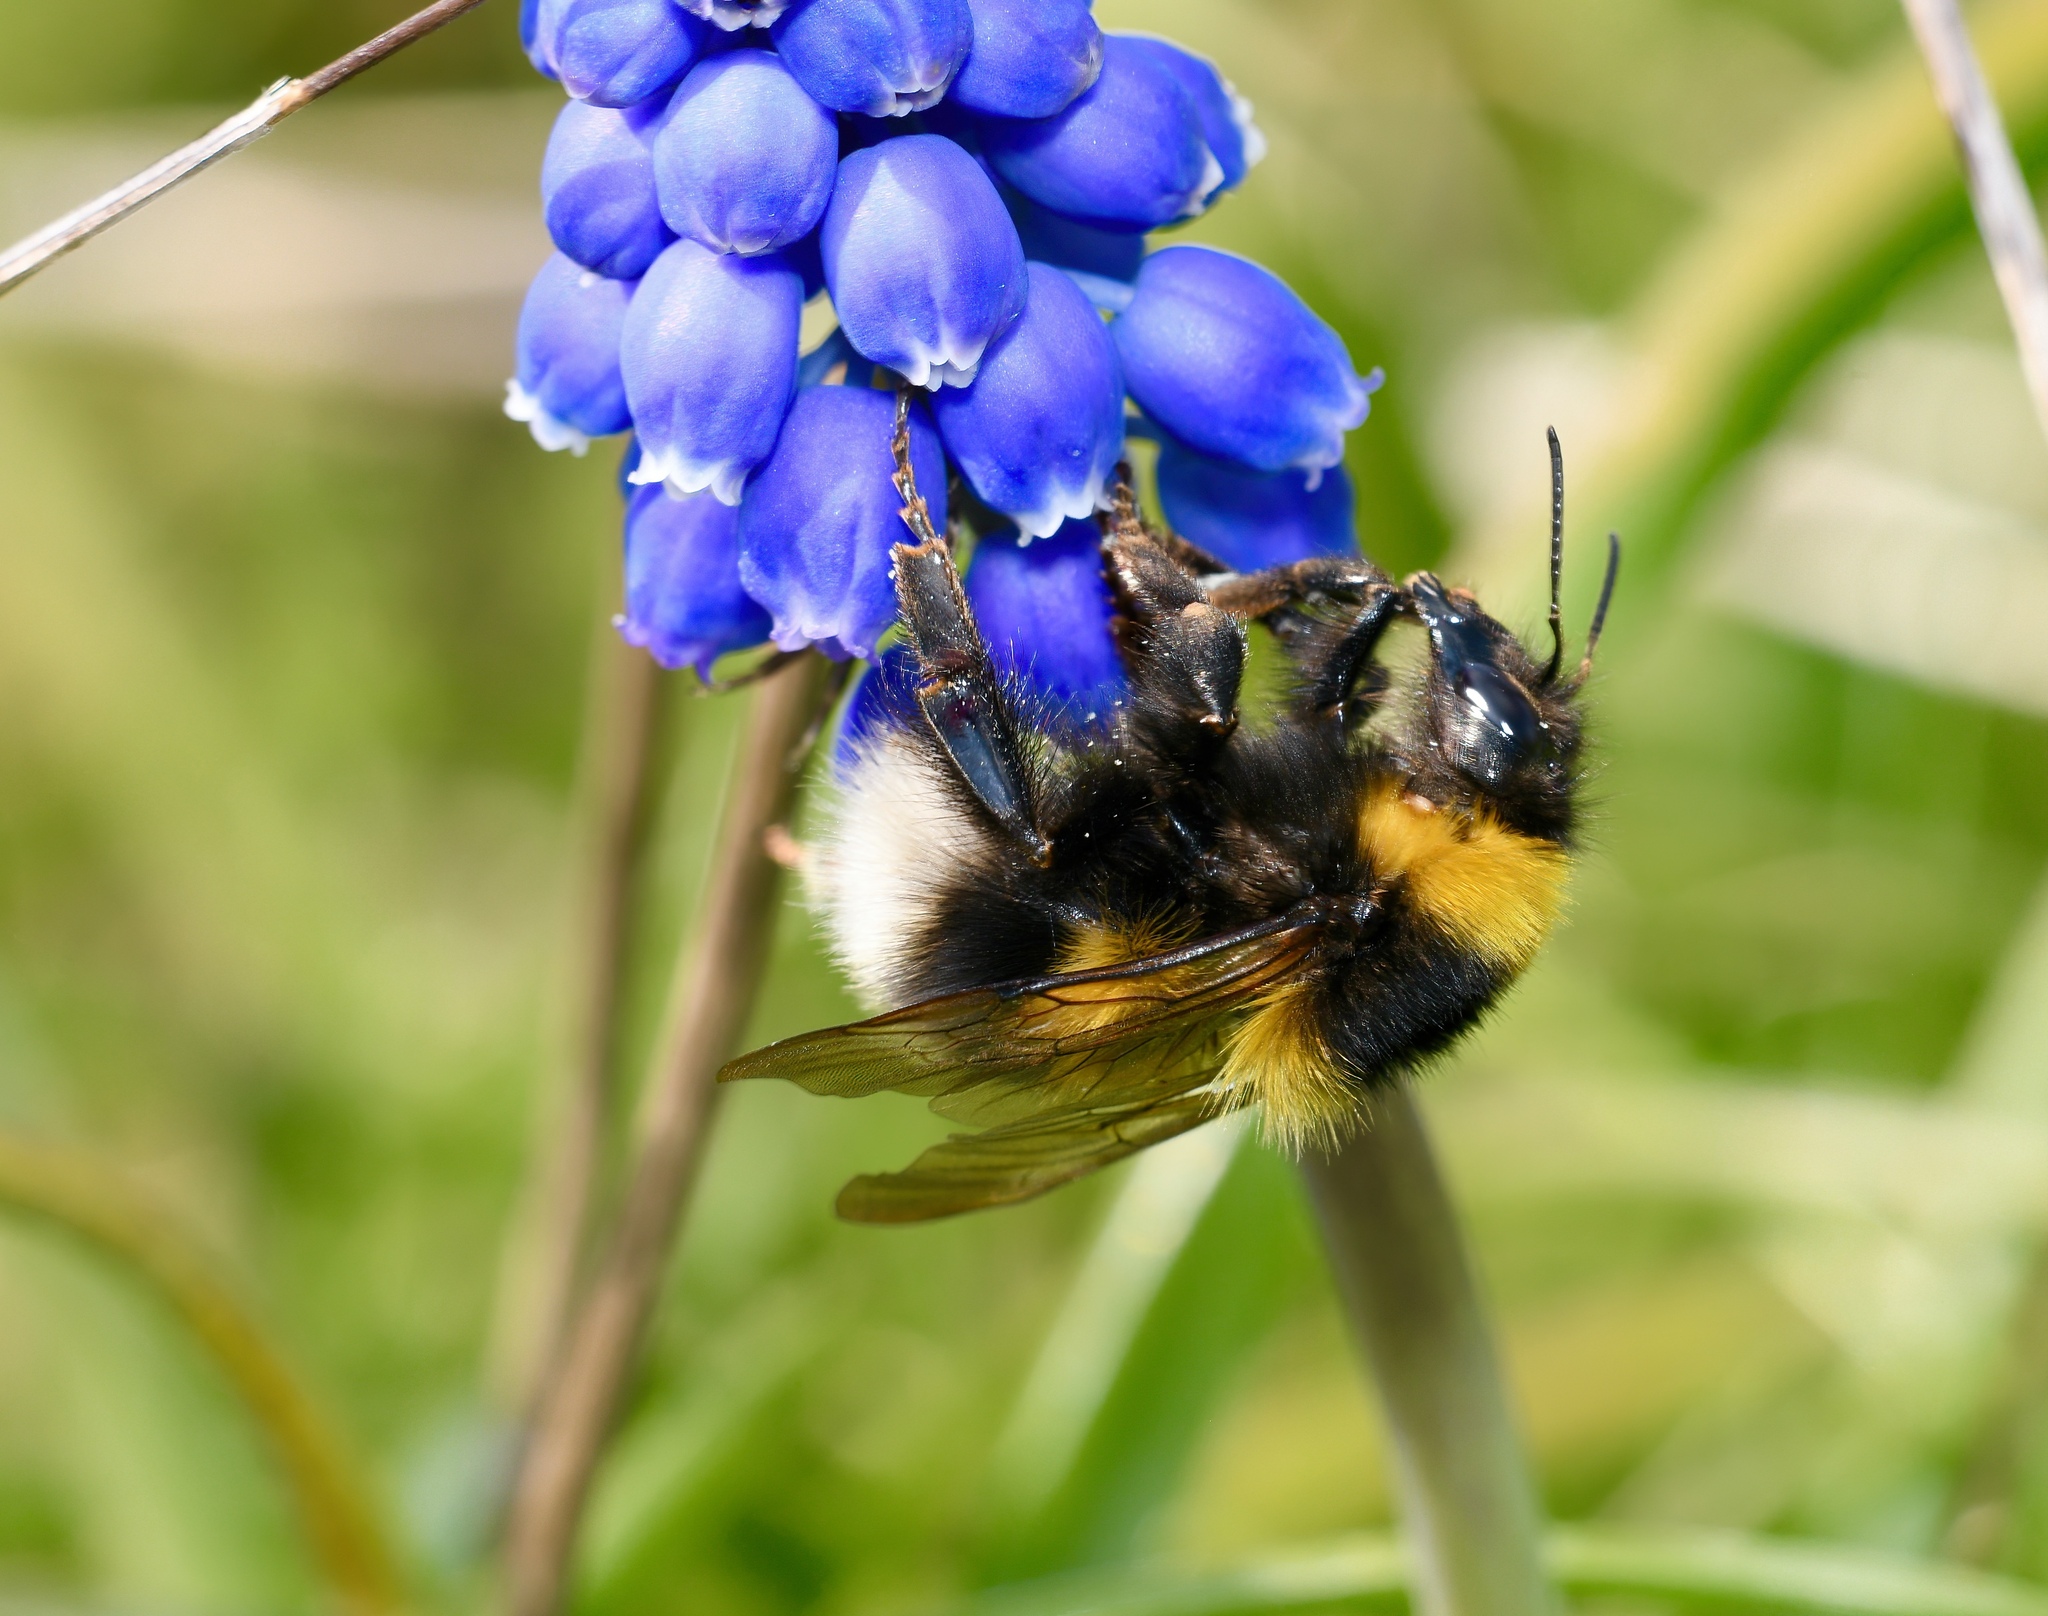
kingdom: Animalia
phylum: Arthropoda
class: Insecta
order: Hymenoptera
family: Apidae
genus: Bombus
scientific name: Bombus hortorum
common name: Garden bumblebee
